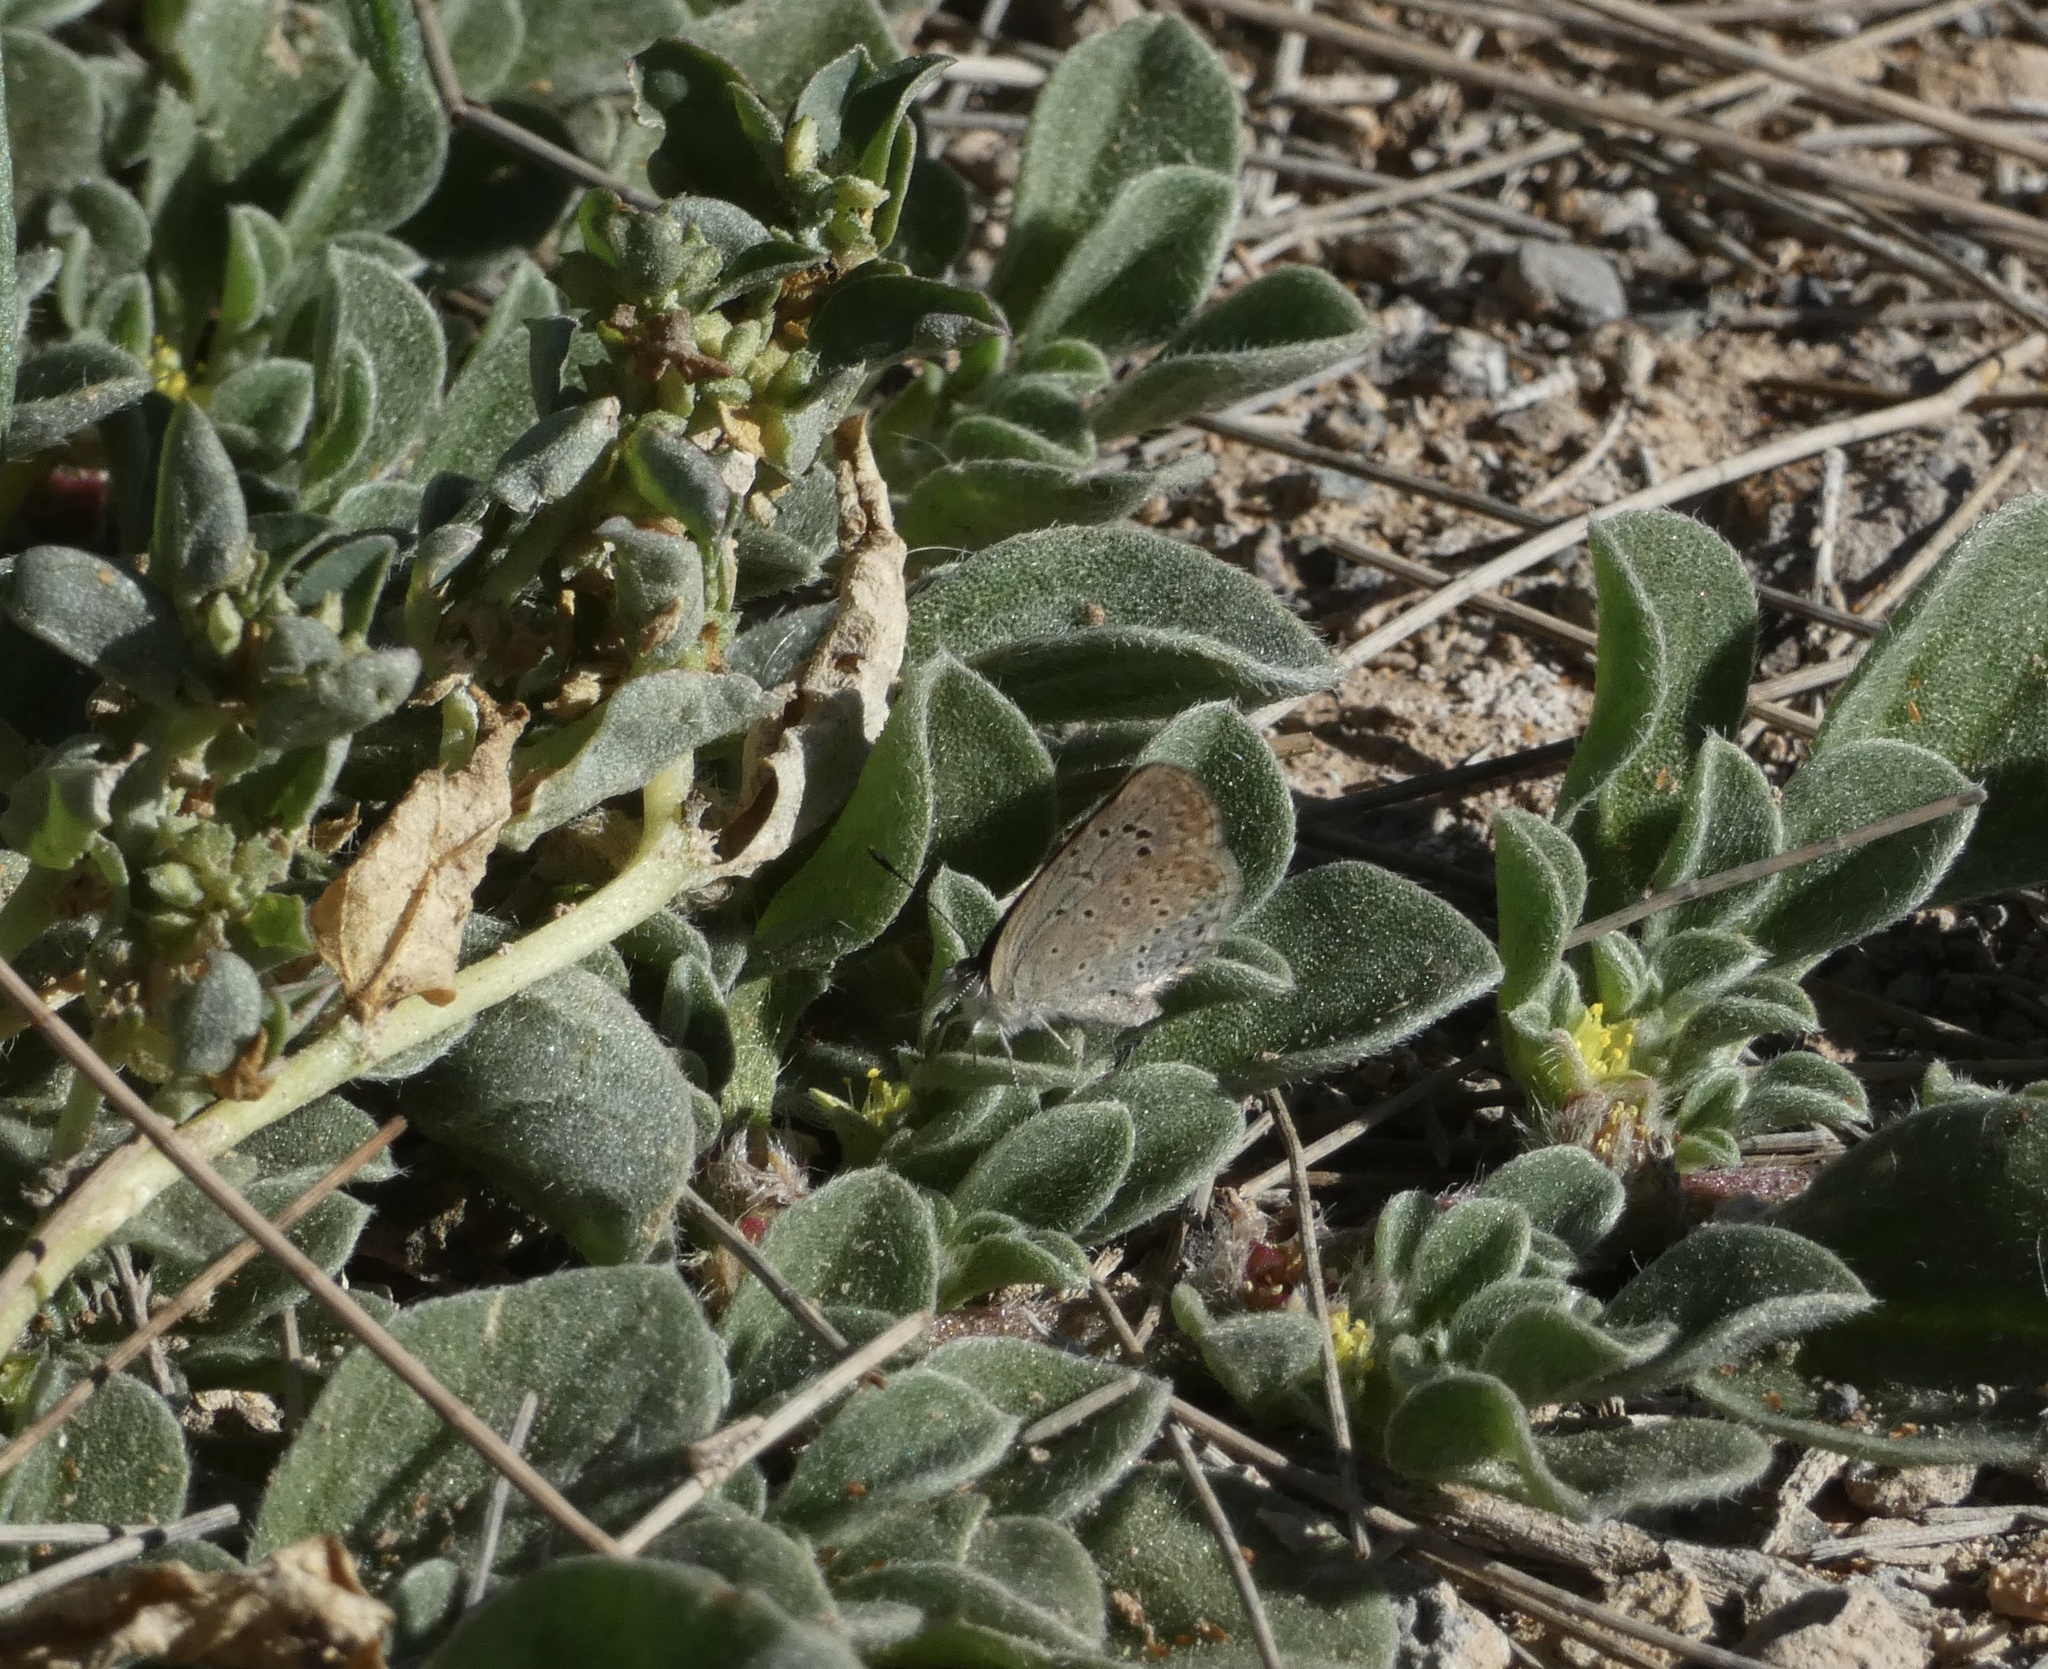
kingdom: Animalia
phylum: Arthropoda
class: Insecta
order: Lepidoptera
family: Lycaenidae
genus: Zizeeria
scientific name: Zizeeria knysna
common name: African grass blue
